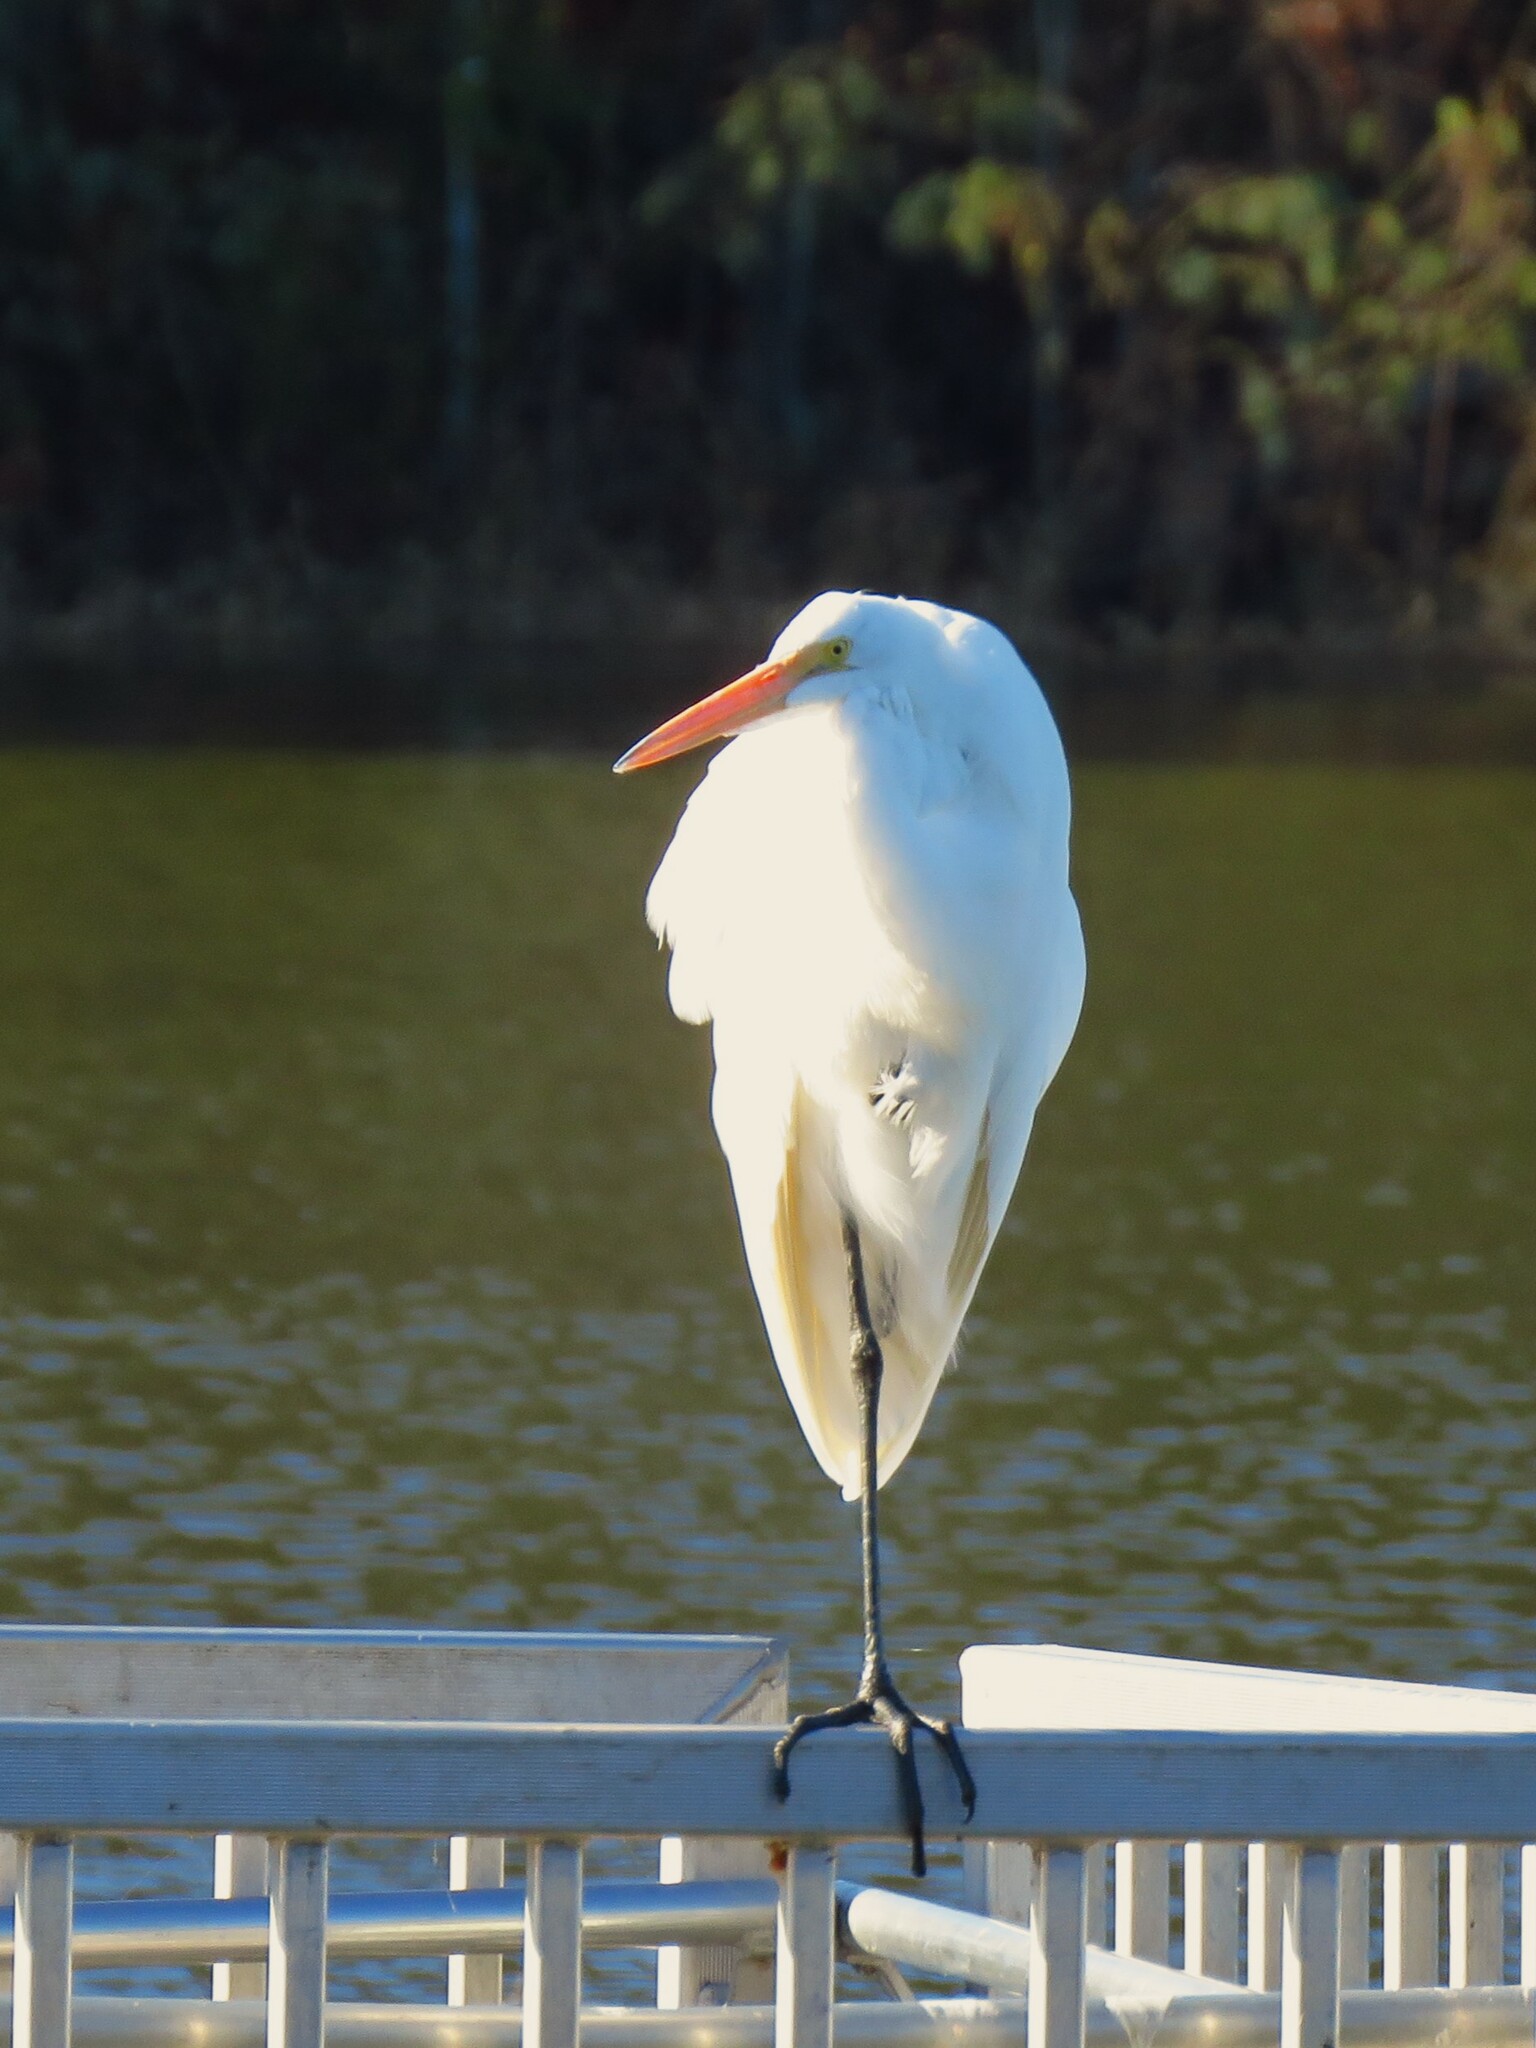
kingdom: Animalia
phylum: Chordata
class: Aves
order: Pelecaniformes
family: Ardeidae
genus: Ardea
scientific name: Ardea alba
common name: Great egret
